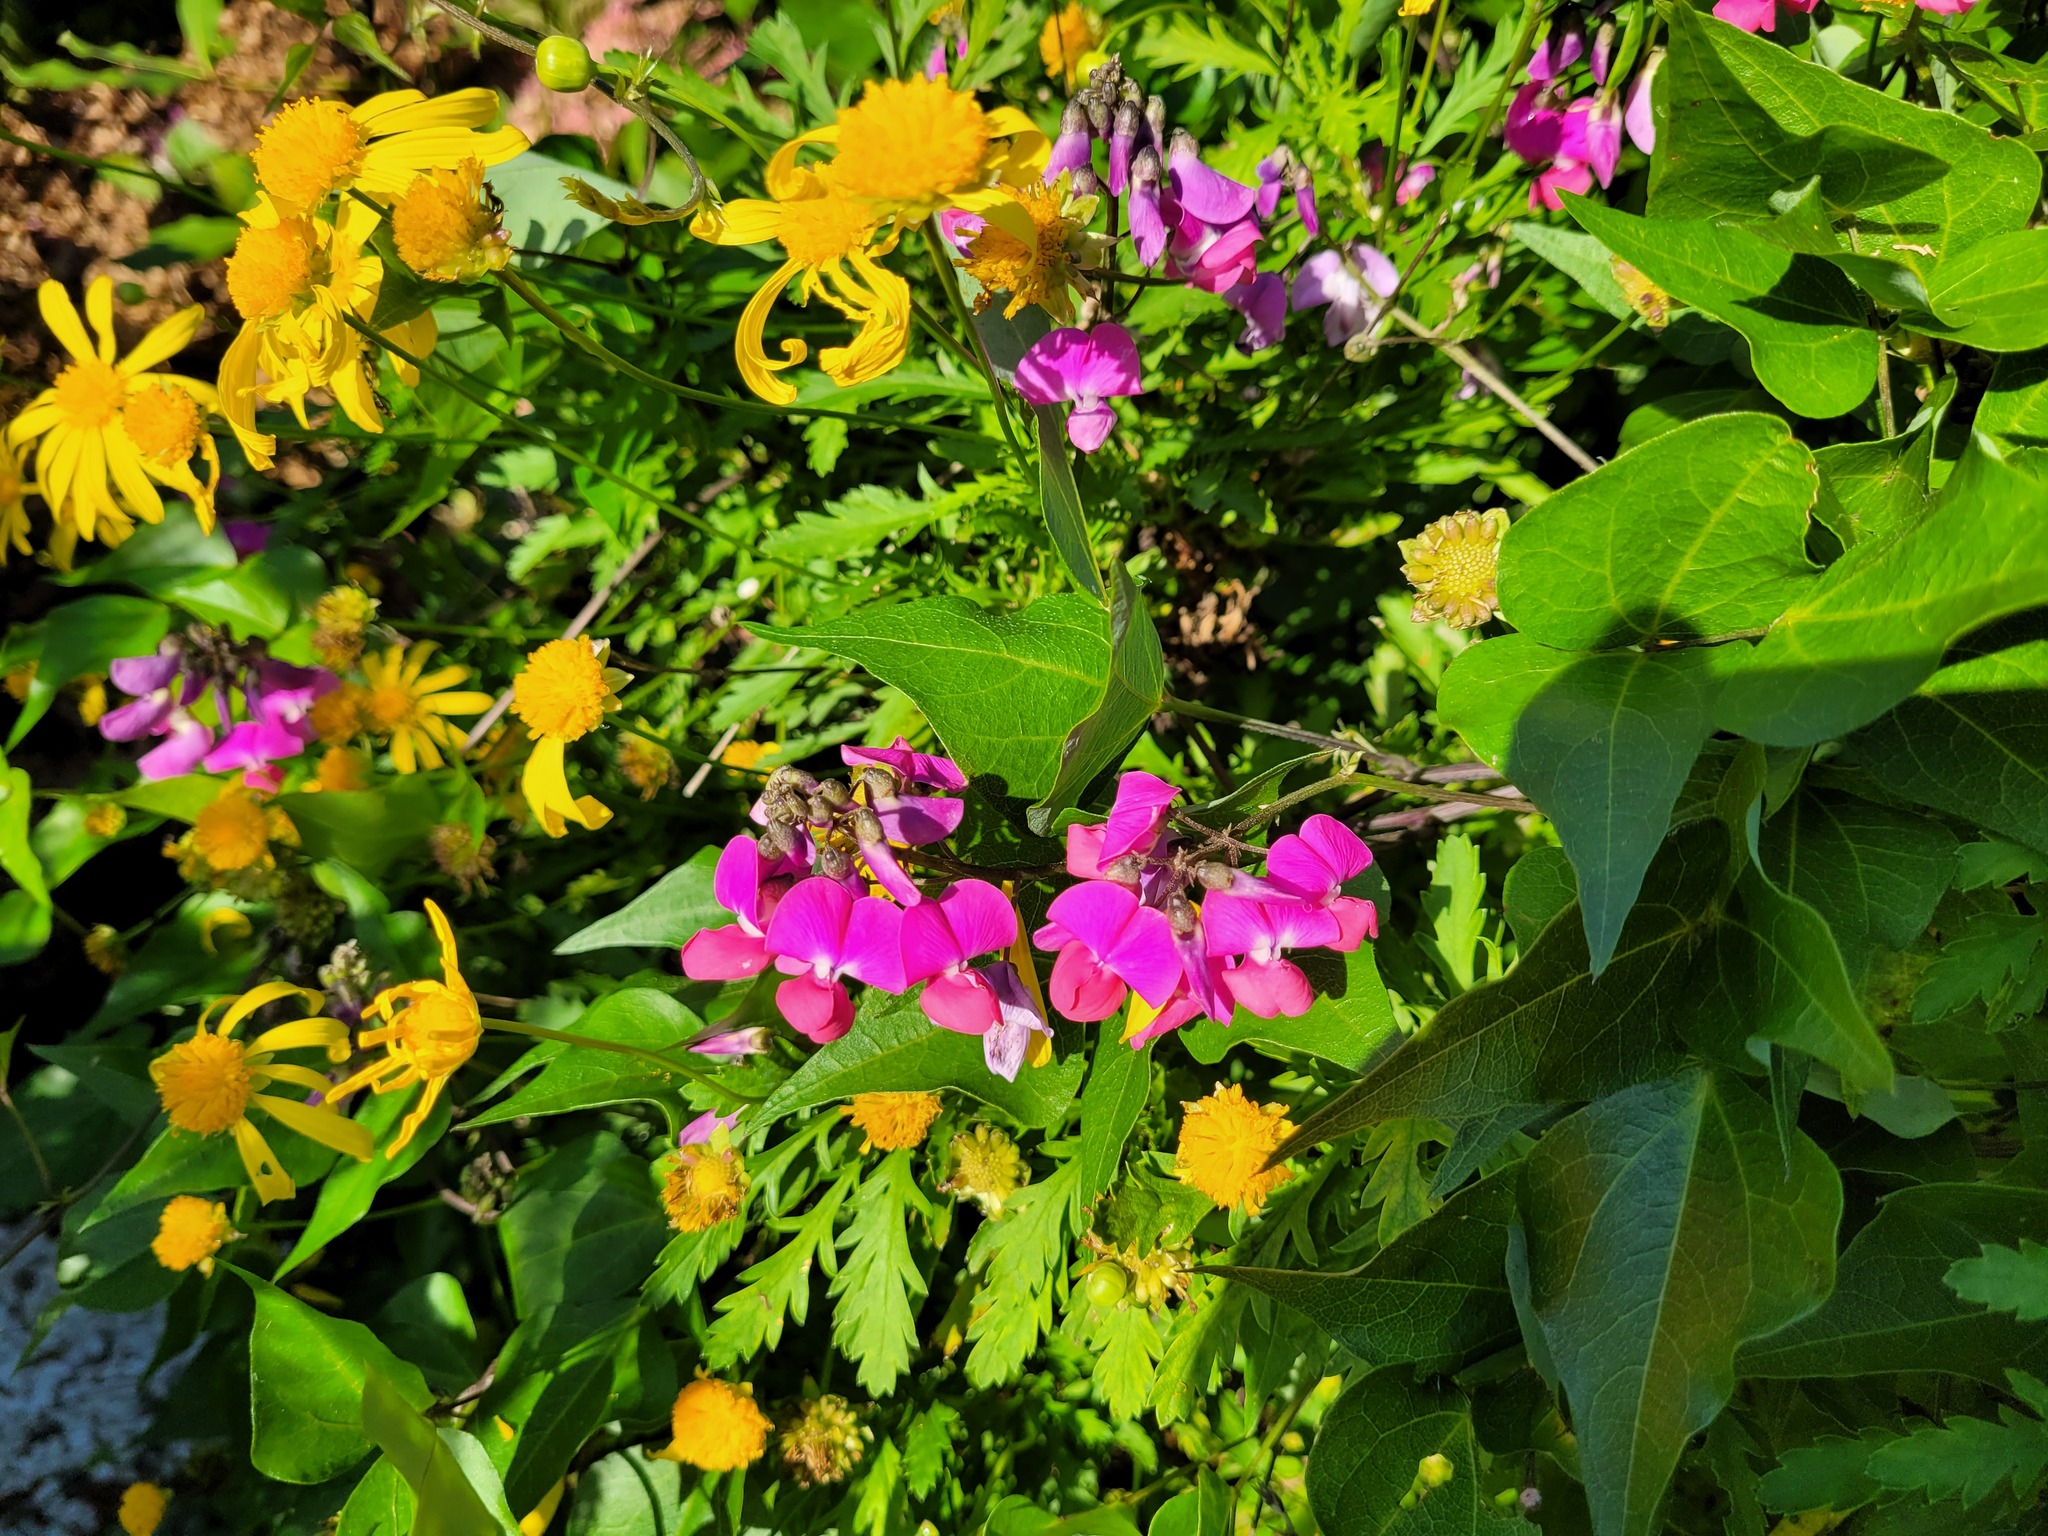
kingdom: Plantae
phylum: Tracheophyta
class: Magnoliopsida
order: Fabales
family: Fabaceae
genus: Dipogon
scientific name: Dipogon lignosus
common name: Okie bean
